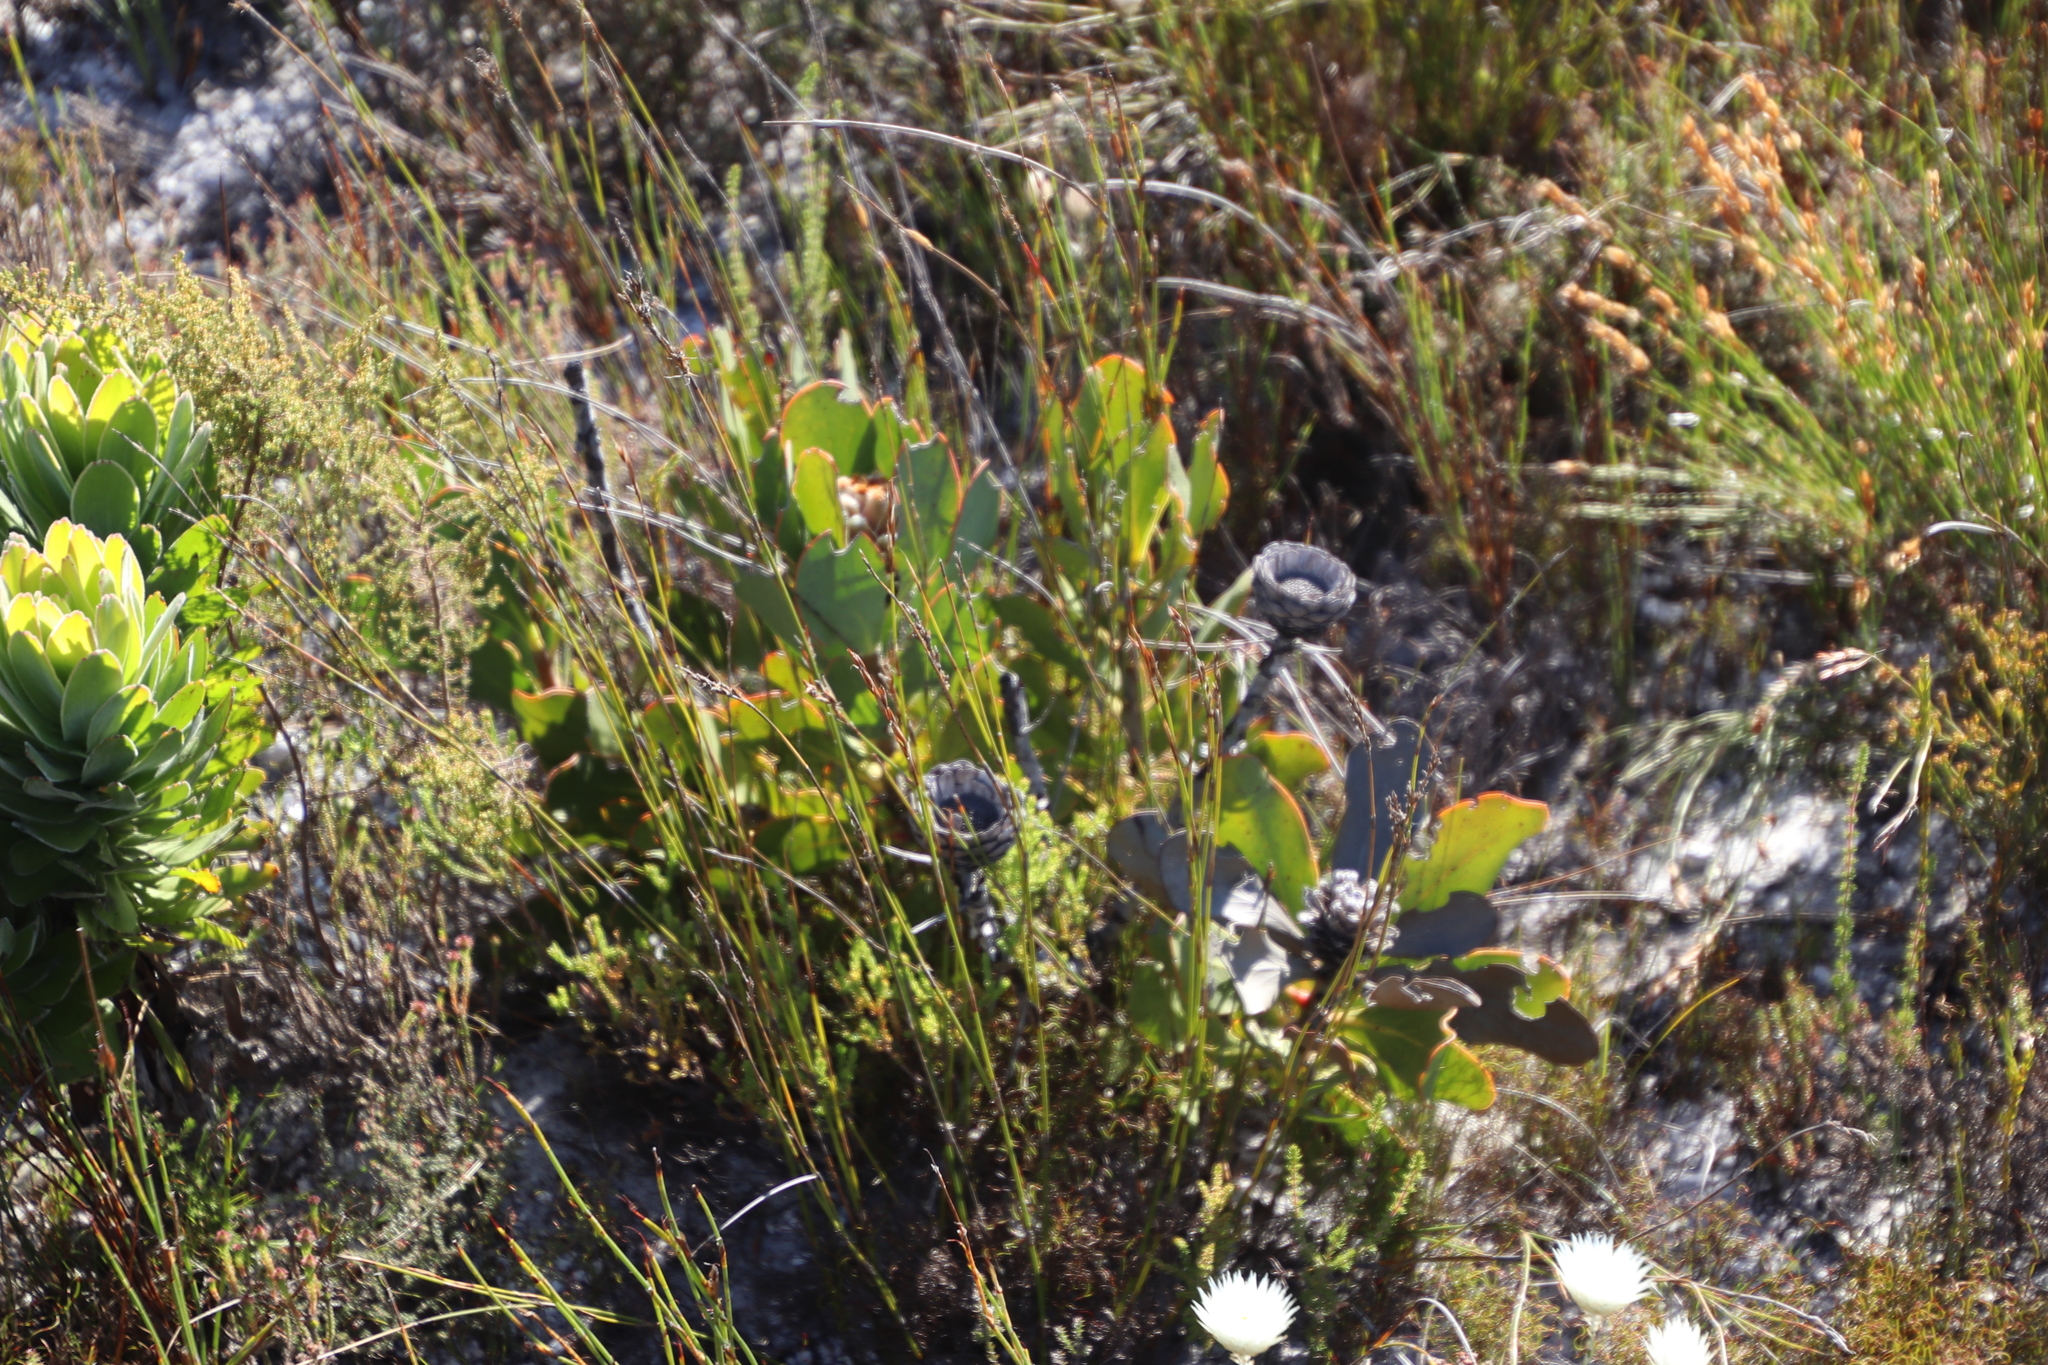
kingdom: Plantae
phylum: Tracheophyta
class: Magnoliopsida
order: Proteales
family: Proteaceae
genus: Protea
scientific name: Protea speciosa
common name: Brown-beard sugarbush
